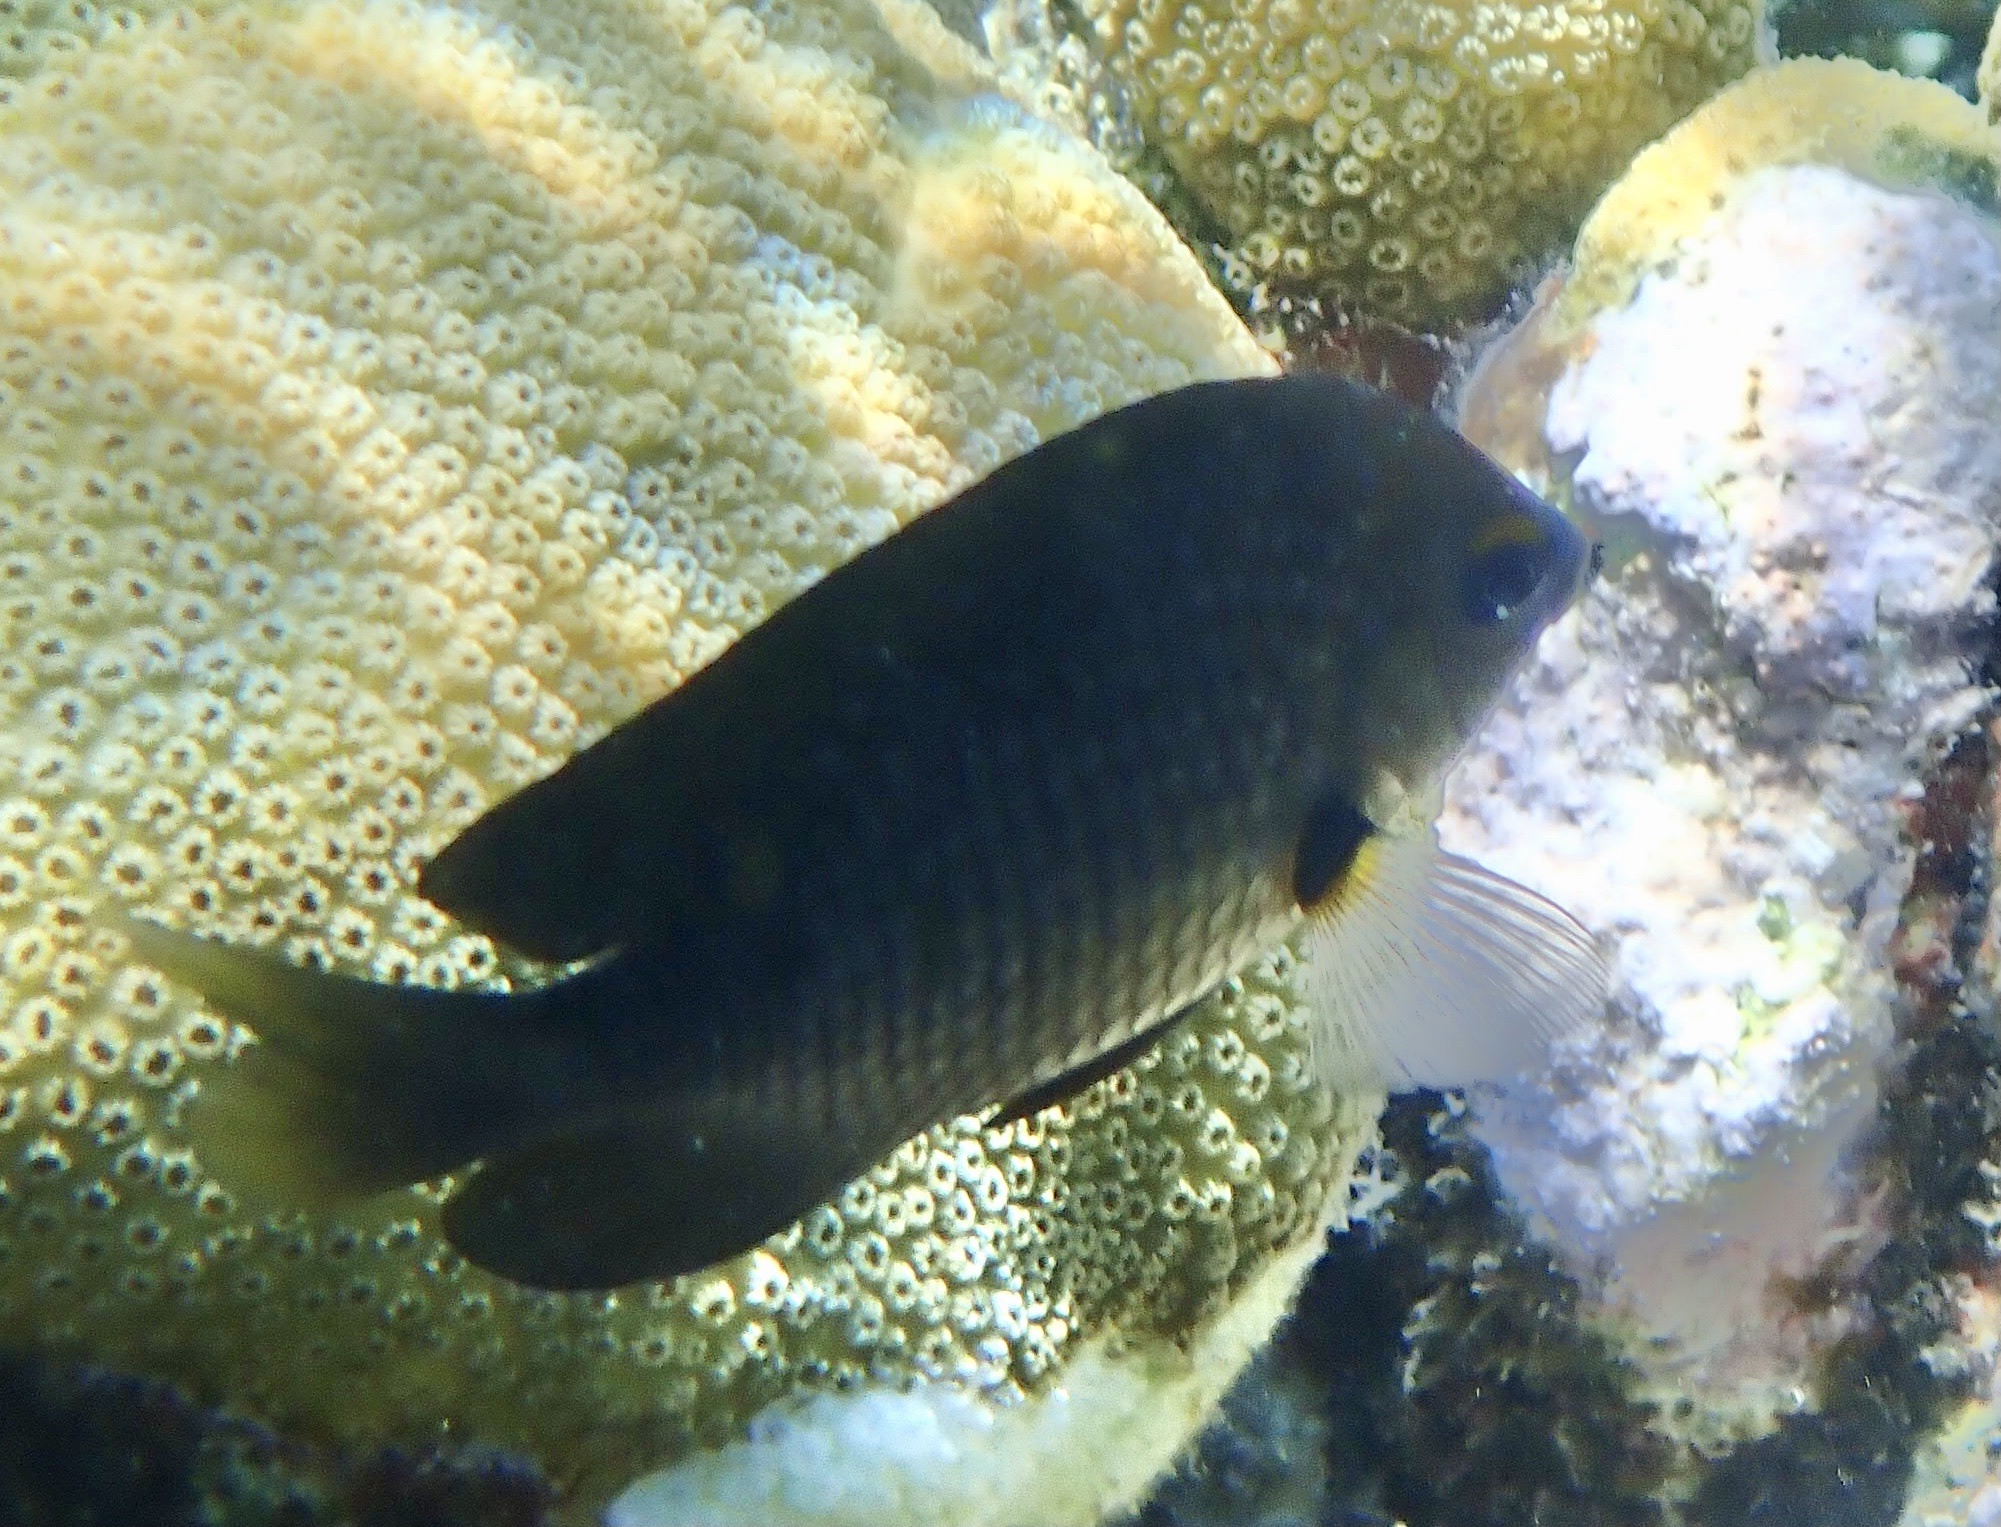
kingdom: Animalia
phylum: Chordata
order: Perciformes
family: Pomacentridae
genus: Stegastes
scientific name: Stegastes planifrons
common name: Threespot damselfish
